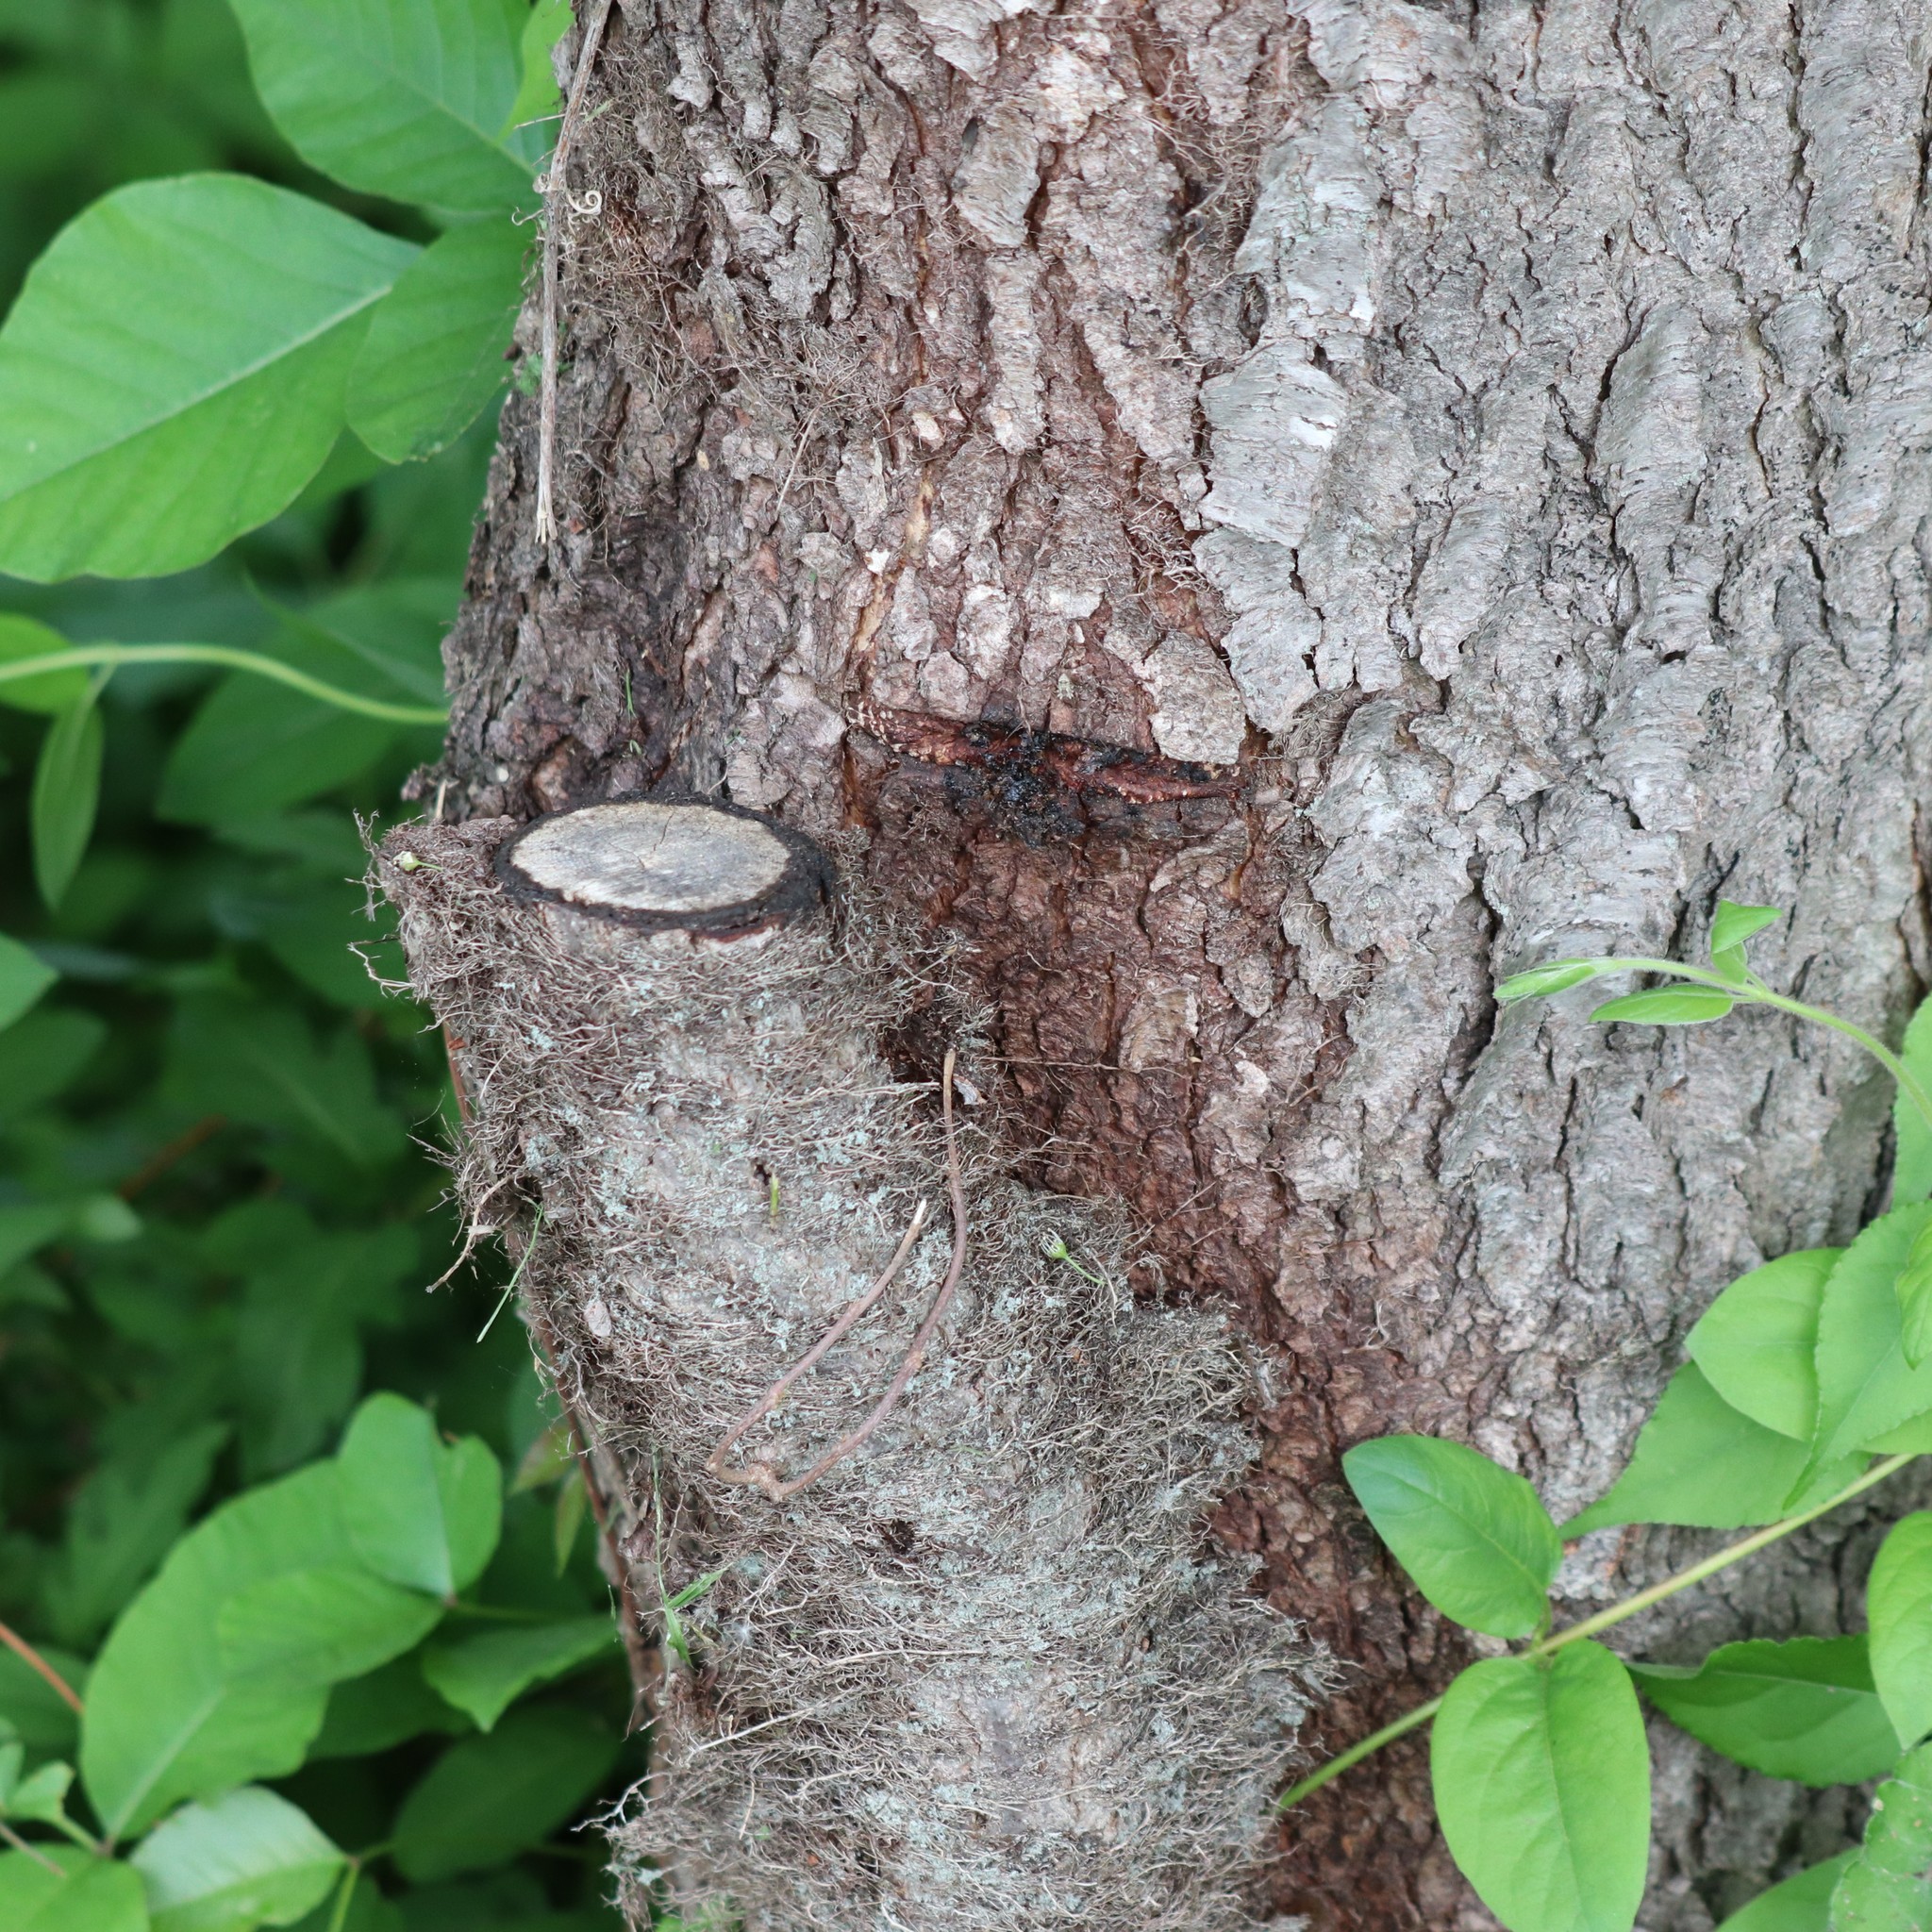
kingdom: Plantae
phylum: Tracheophyta
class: Magnoliopsida
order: Sapindales
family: Anacardiaceae
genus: Toxicodendron
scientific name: Toxicodendron radicans
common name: Poison ivy
